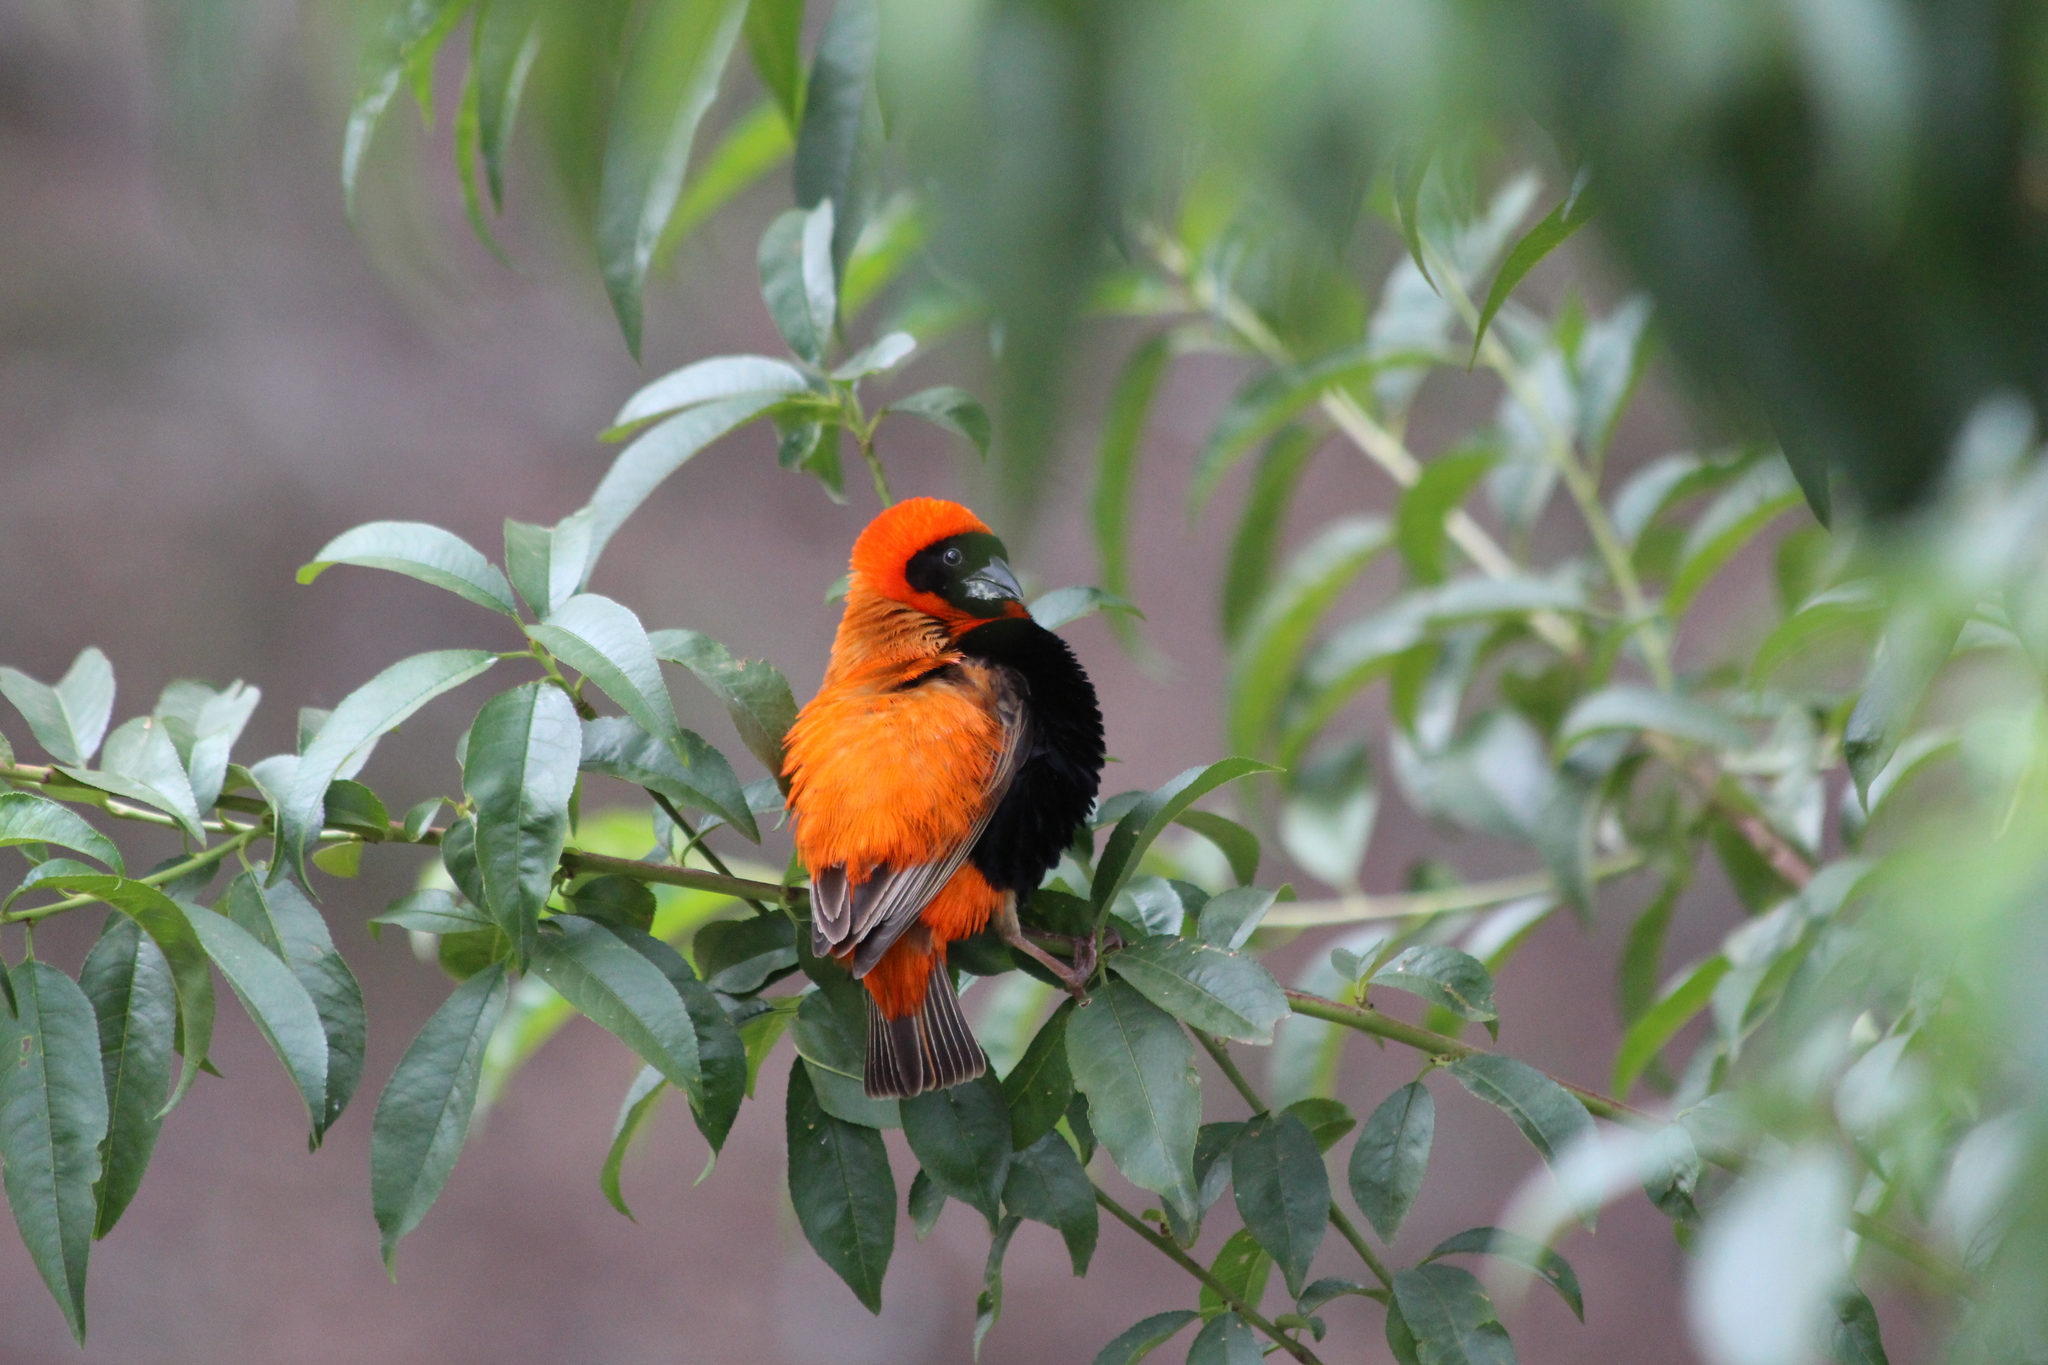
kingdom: Animalia
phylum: Chordata
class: Aves
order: Passeriformes
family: Ploceidae
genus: Euplectes
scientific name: Euplectes orix
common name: Southern red bishop
